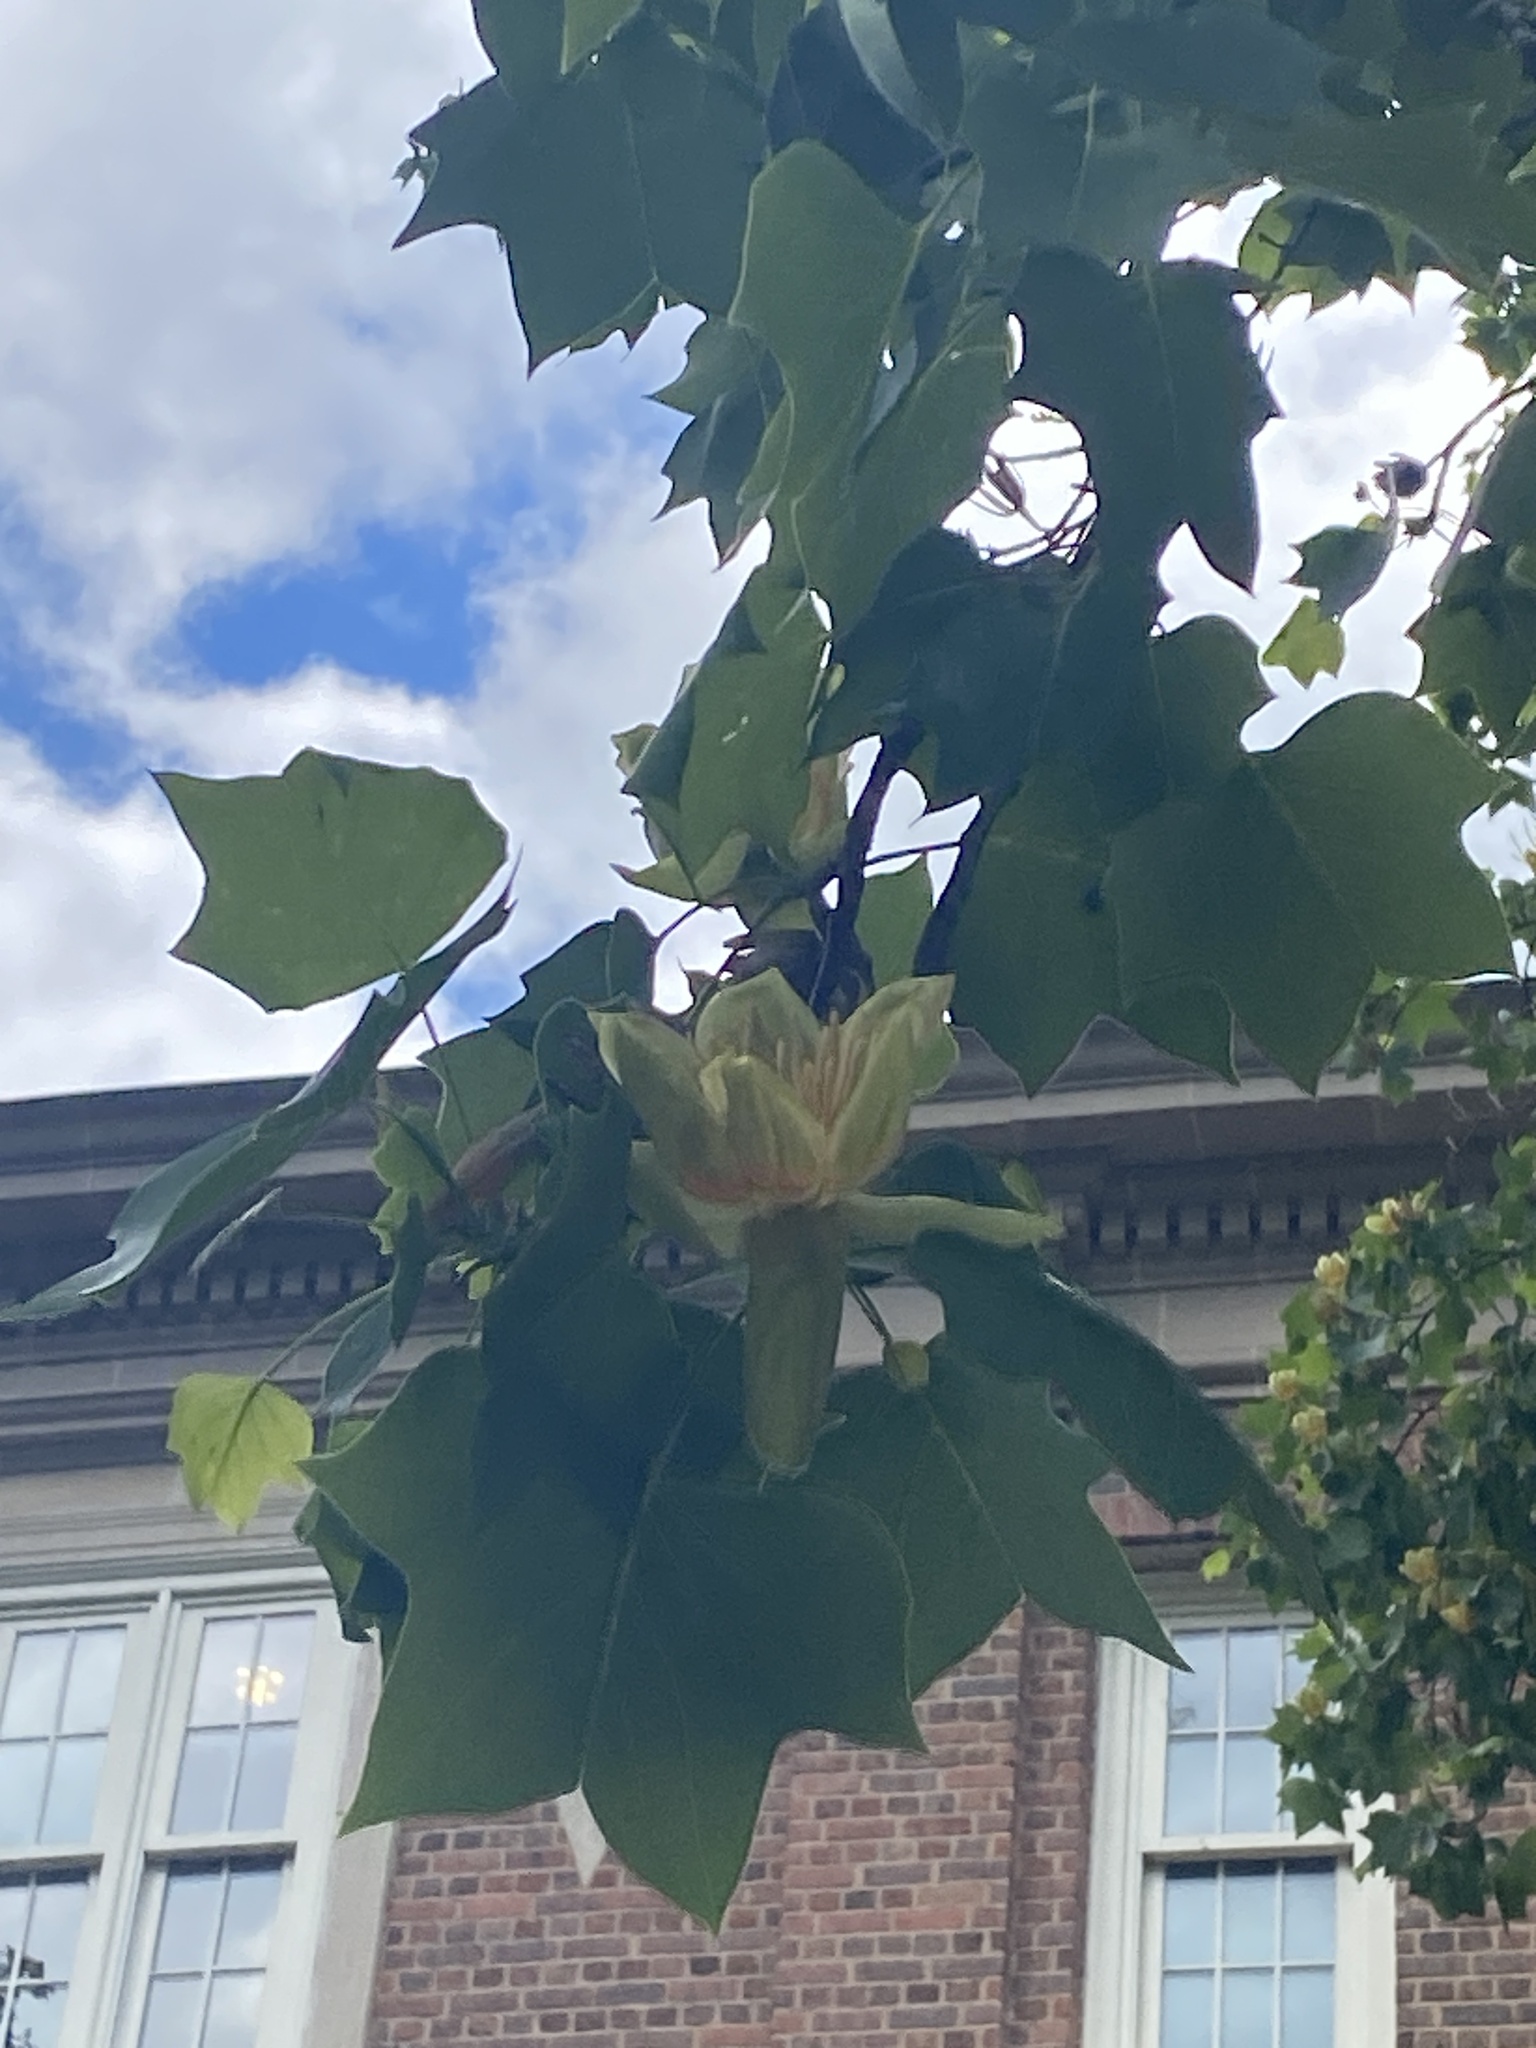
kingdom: Plantae
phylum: Tracheophyta
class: Magnoliopsida
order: Magnoliales
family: Magnoliaceae
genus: Liriodendron
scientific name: Liriodendron tulipifera
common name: Tulip tree
